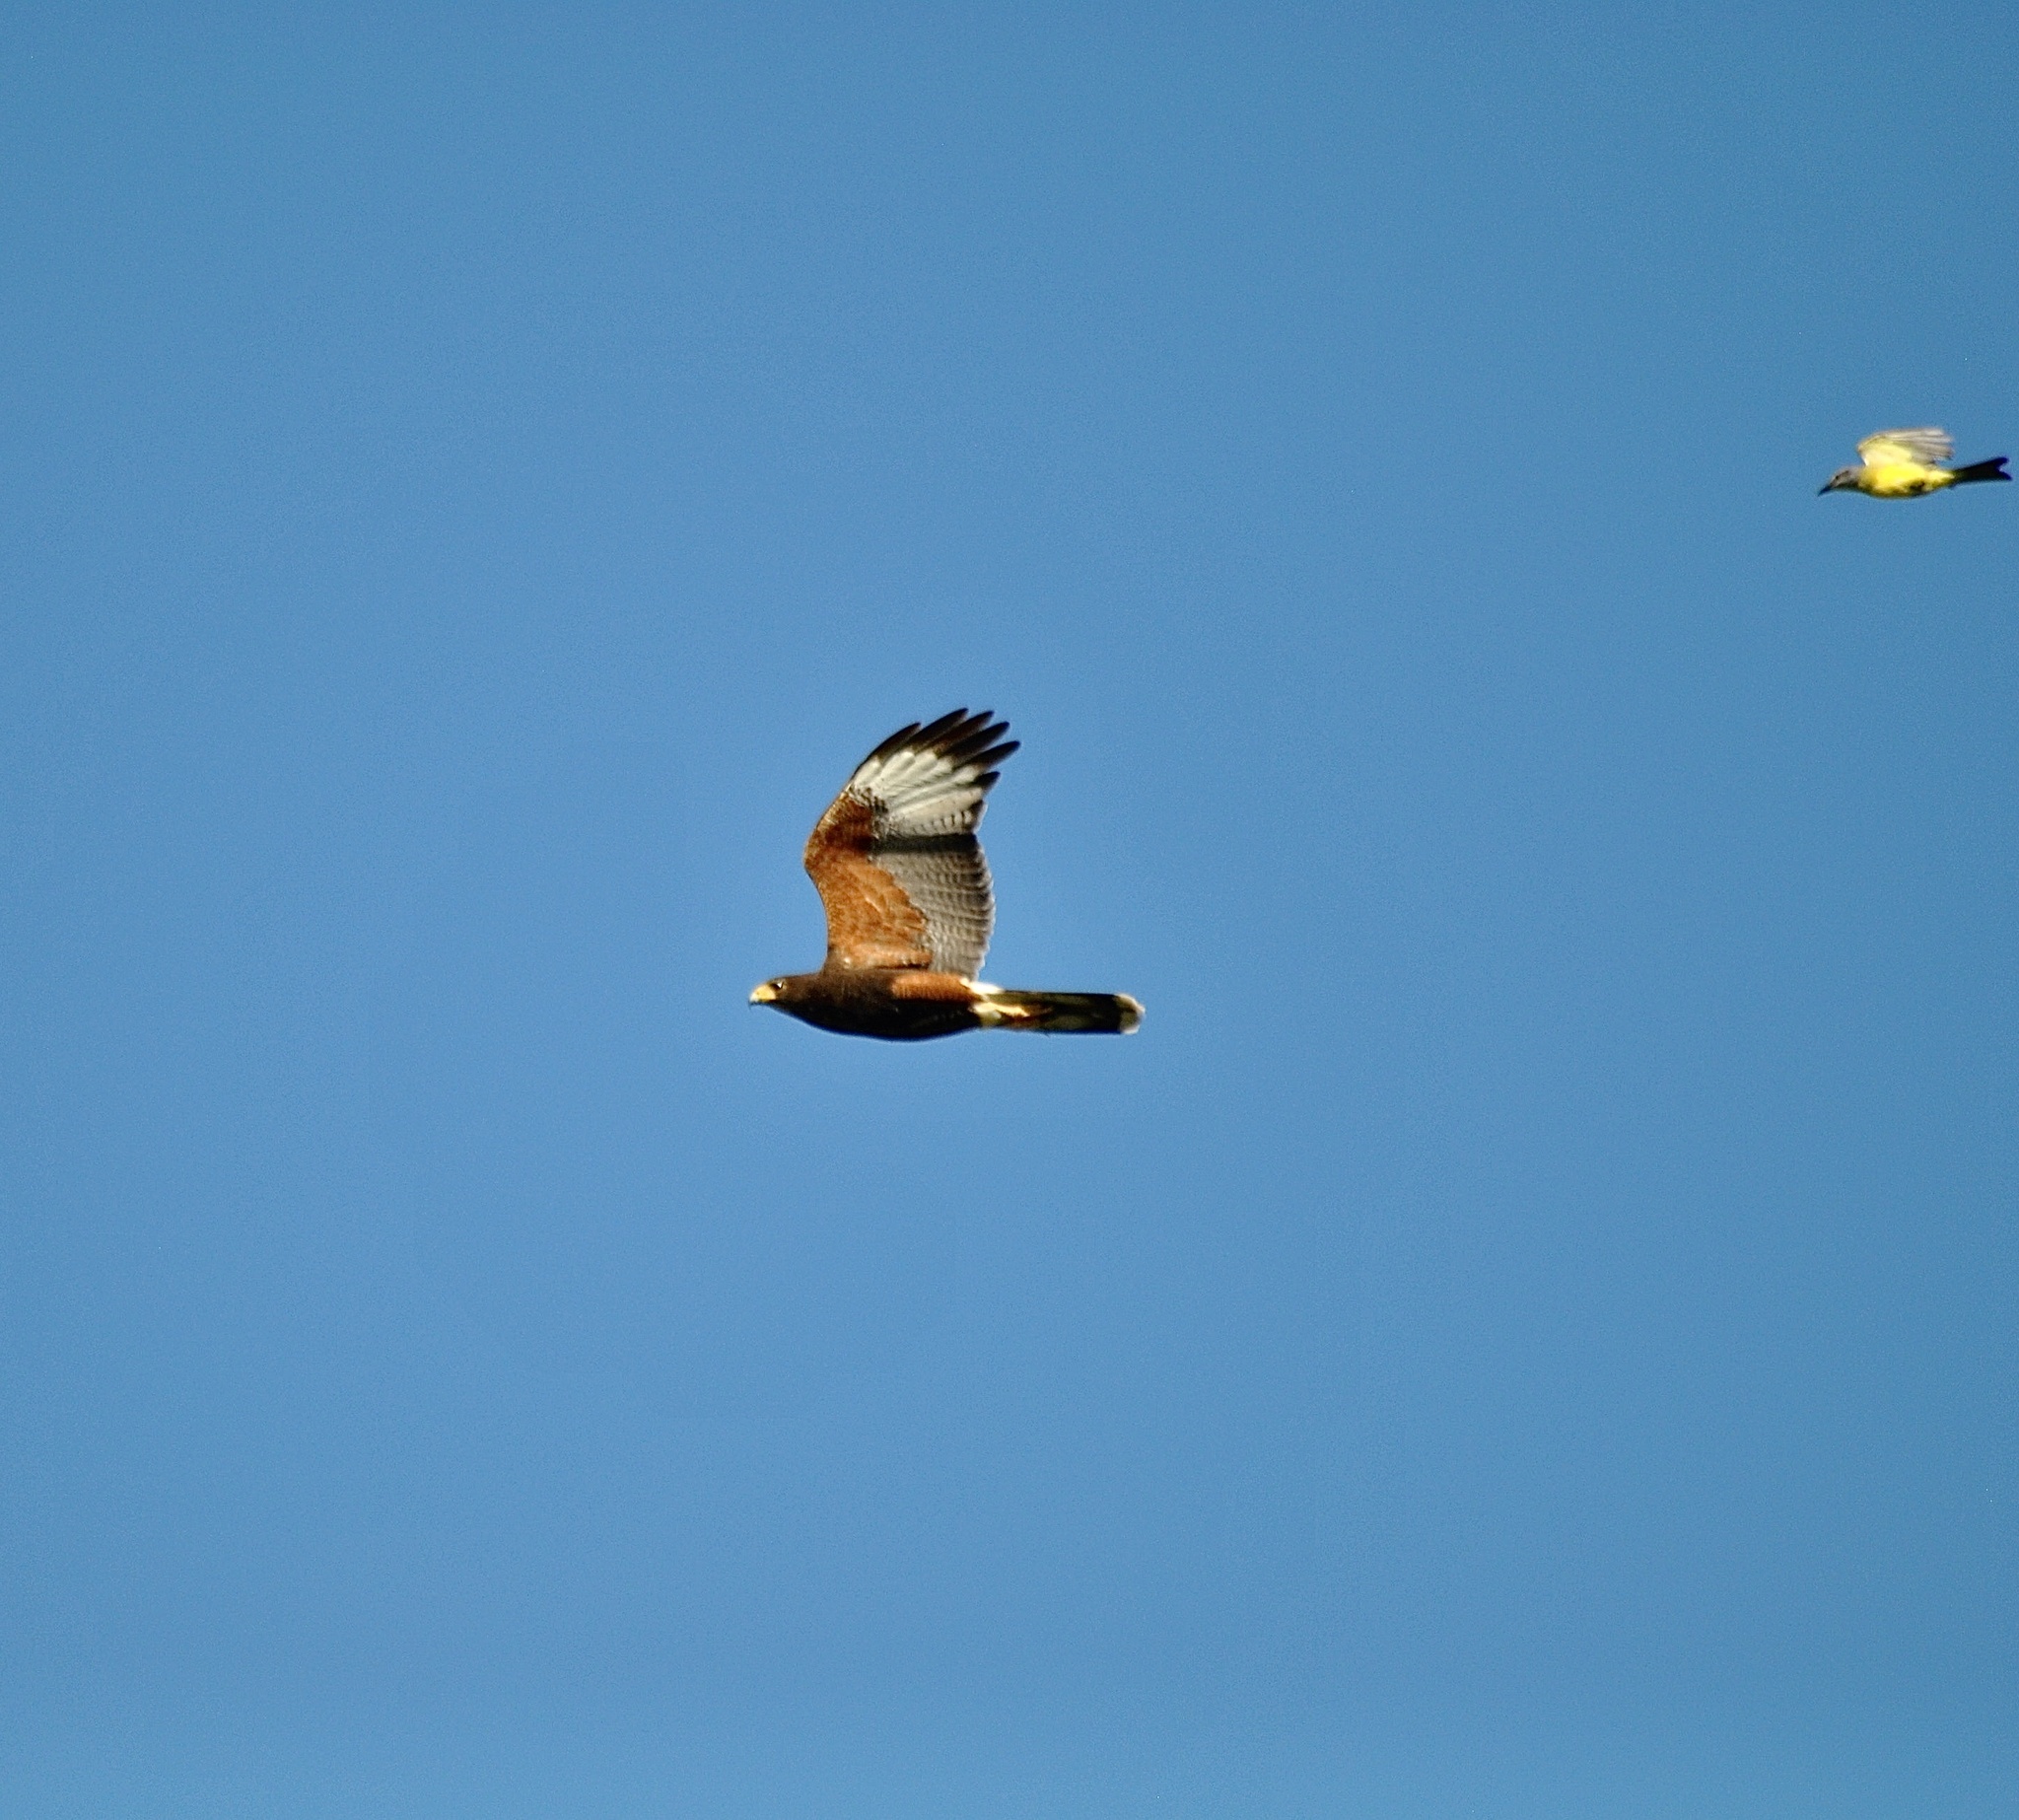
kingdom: Animalia
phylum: Chordata
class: Aves
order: Accipitriformes
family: Accipitridae
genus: Parabuteo
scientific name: Parabuteo unicinctus
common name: Harris's hawk
